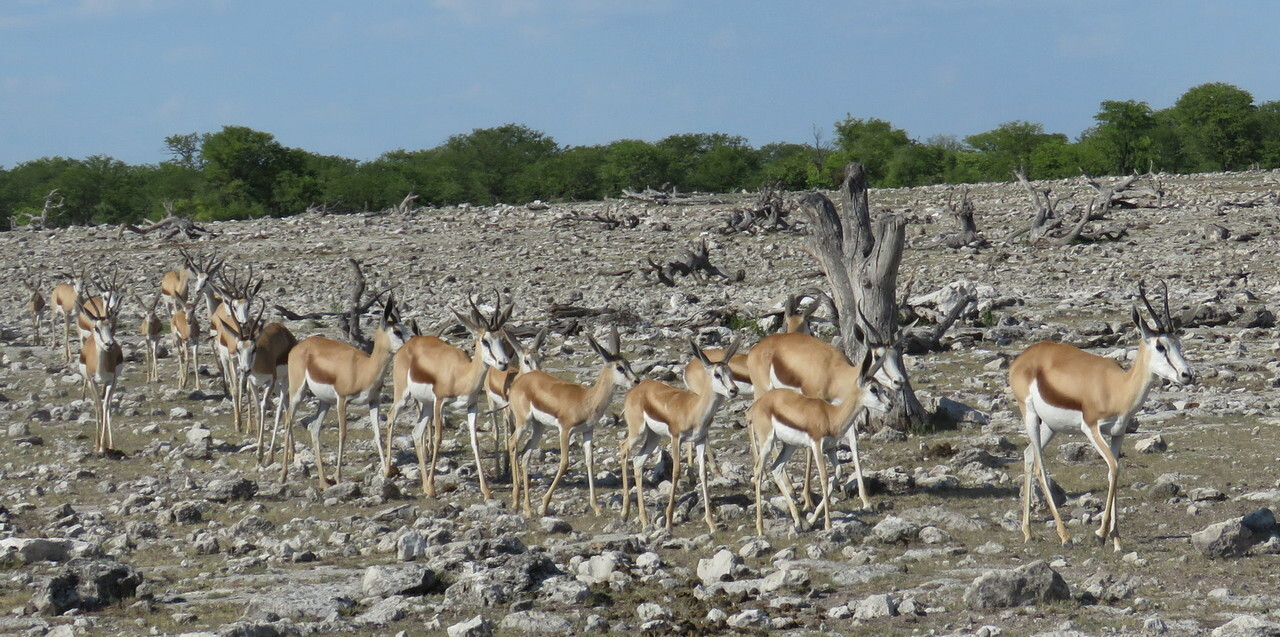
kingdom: Animalia
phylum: Chordata
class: Mammalia
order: Artiodactyla
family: Bovidae
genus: Antidorcas
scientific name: Antidorcas marsupialis
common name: Springbok
